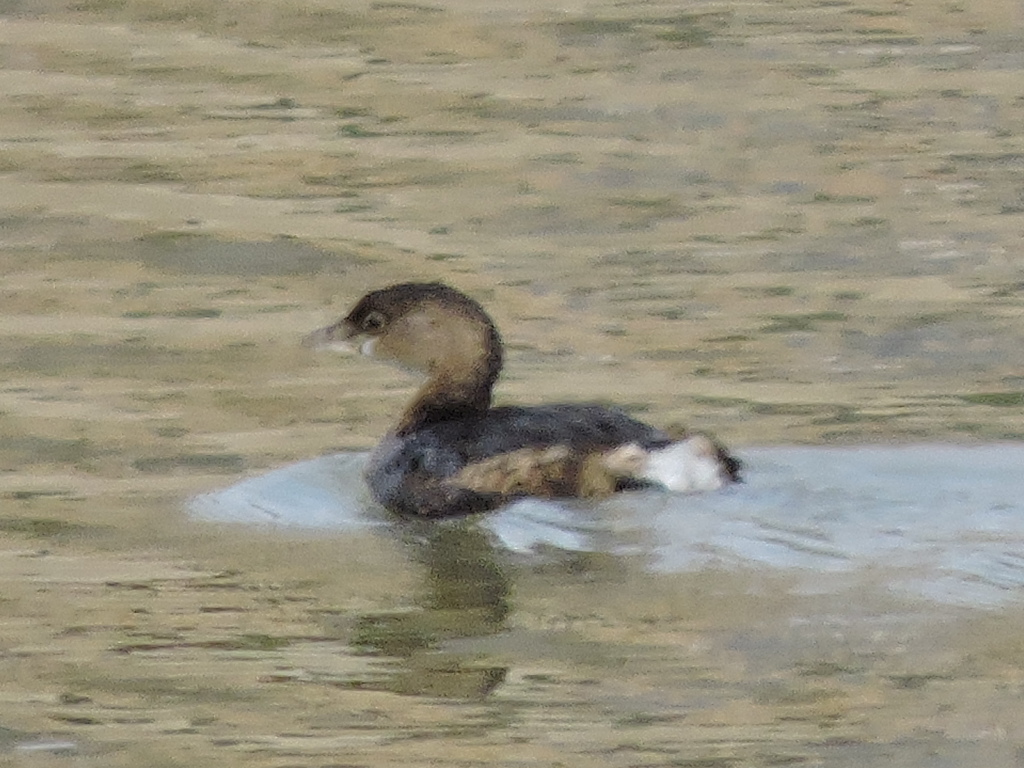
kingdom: Animalia
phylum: Chordata
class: Aves
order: Podicipediformes
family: Podicipedidae
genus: Podilymbus
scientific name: Podilymbus podiceps
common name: Pied-billed grebe
